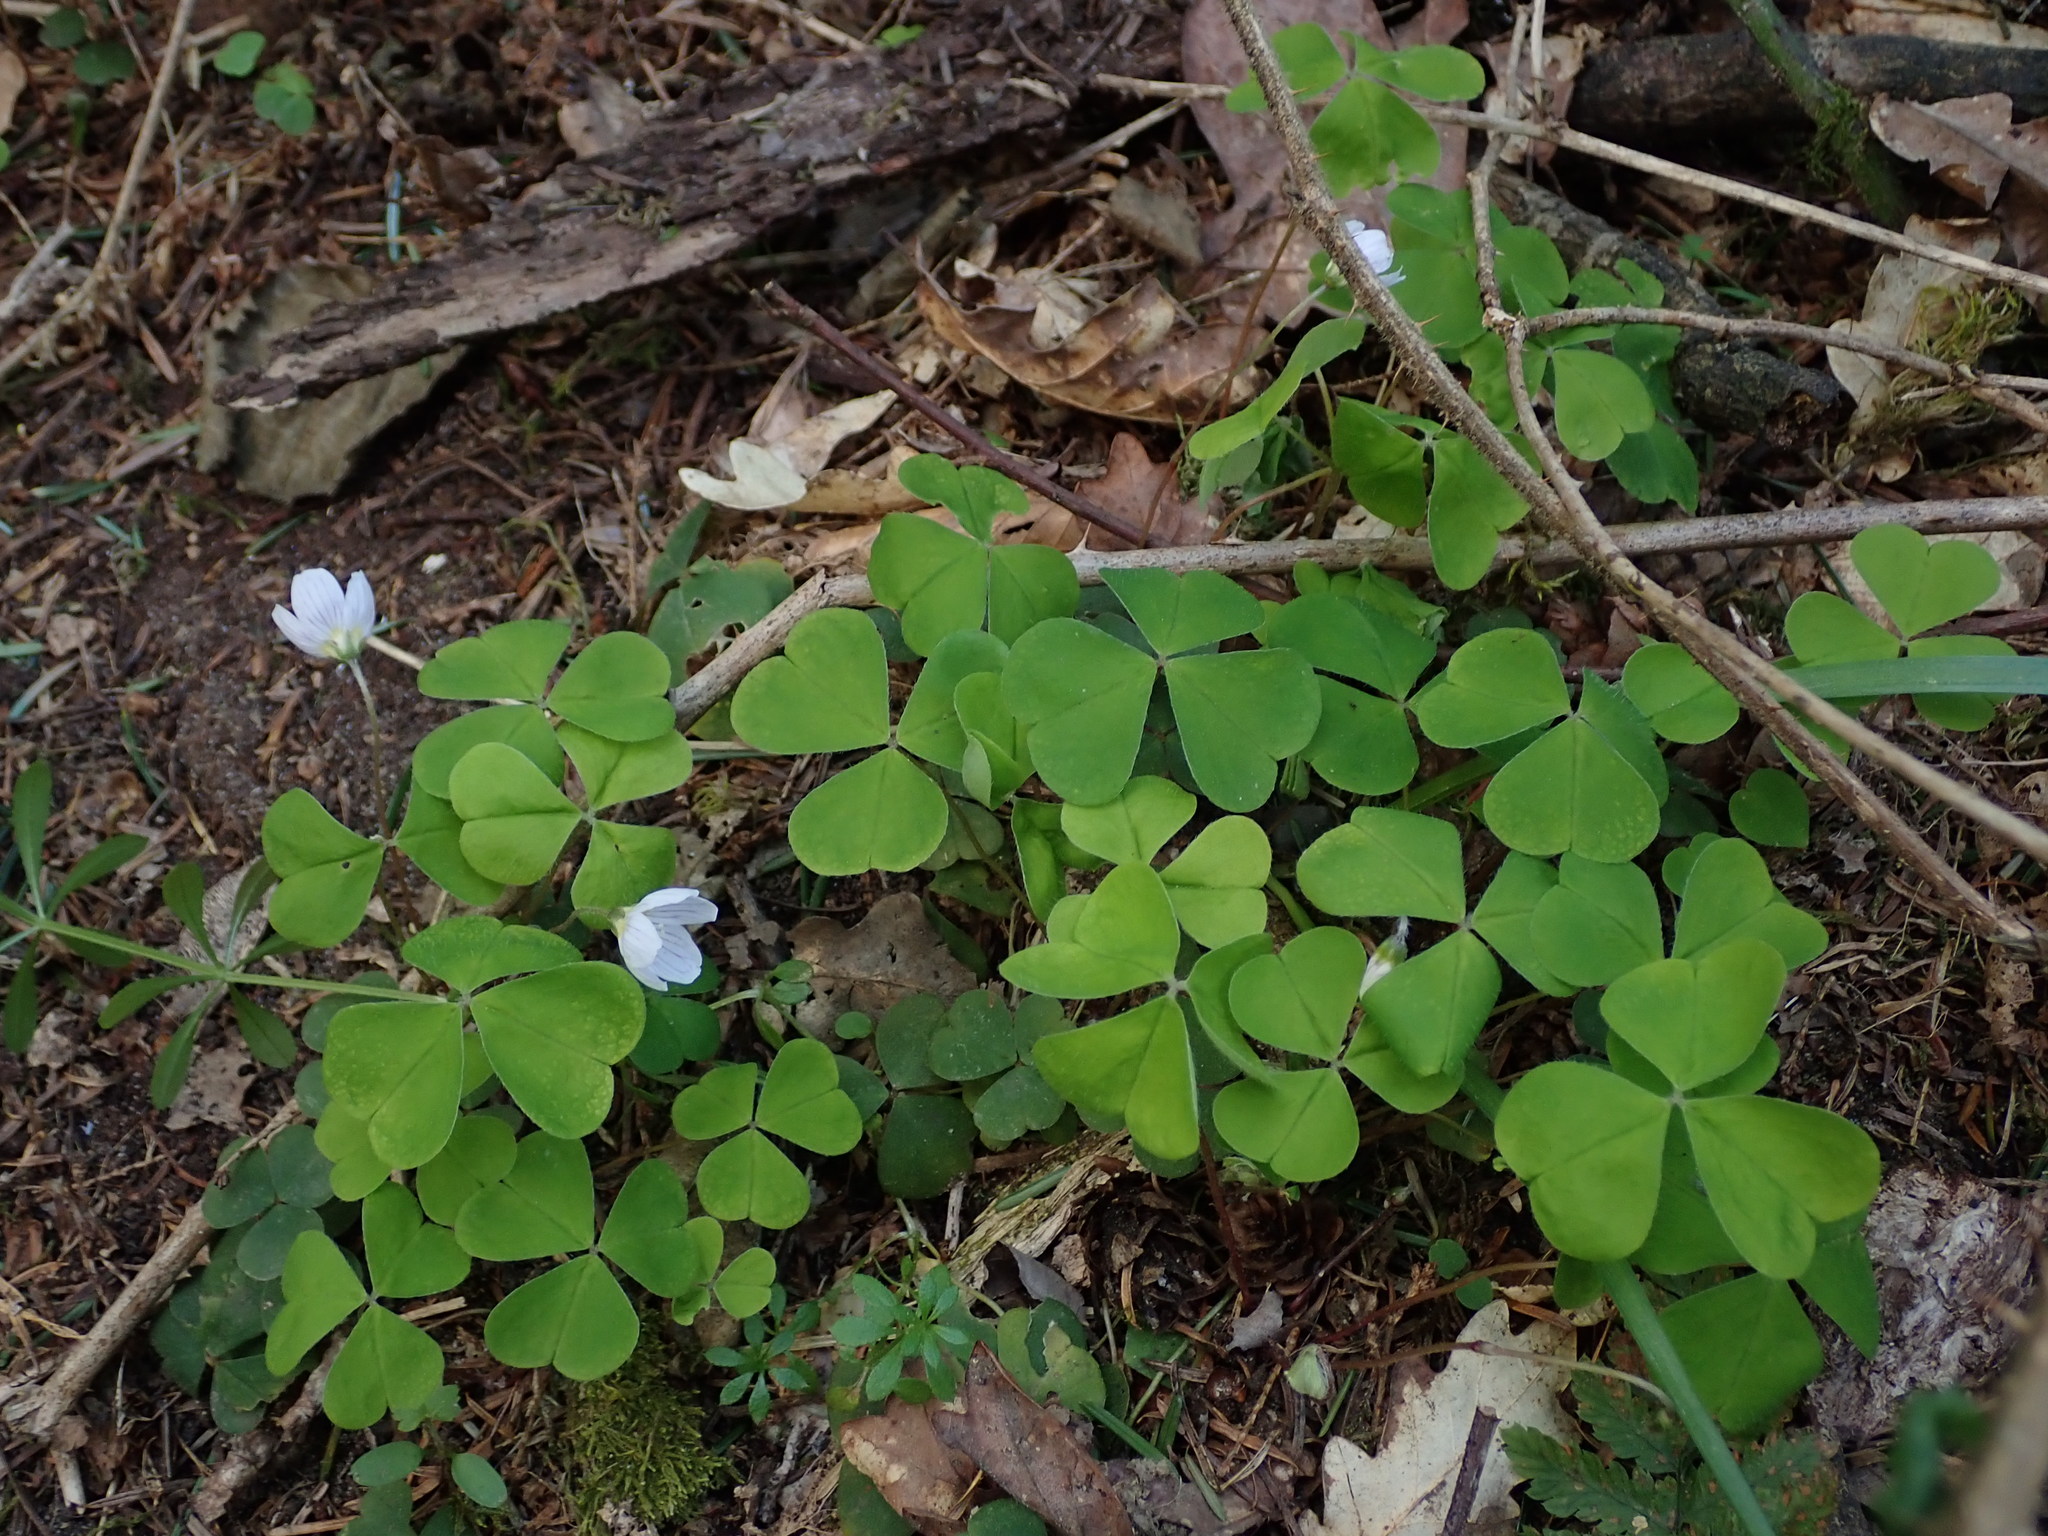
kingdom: Plantae
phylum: Tracheophyta
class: Magnoliopsida
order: Oxalidales
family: Oxalidaceae
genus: Oxalis
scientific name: Oxalis acetosella
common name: Wood-sorrel
